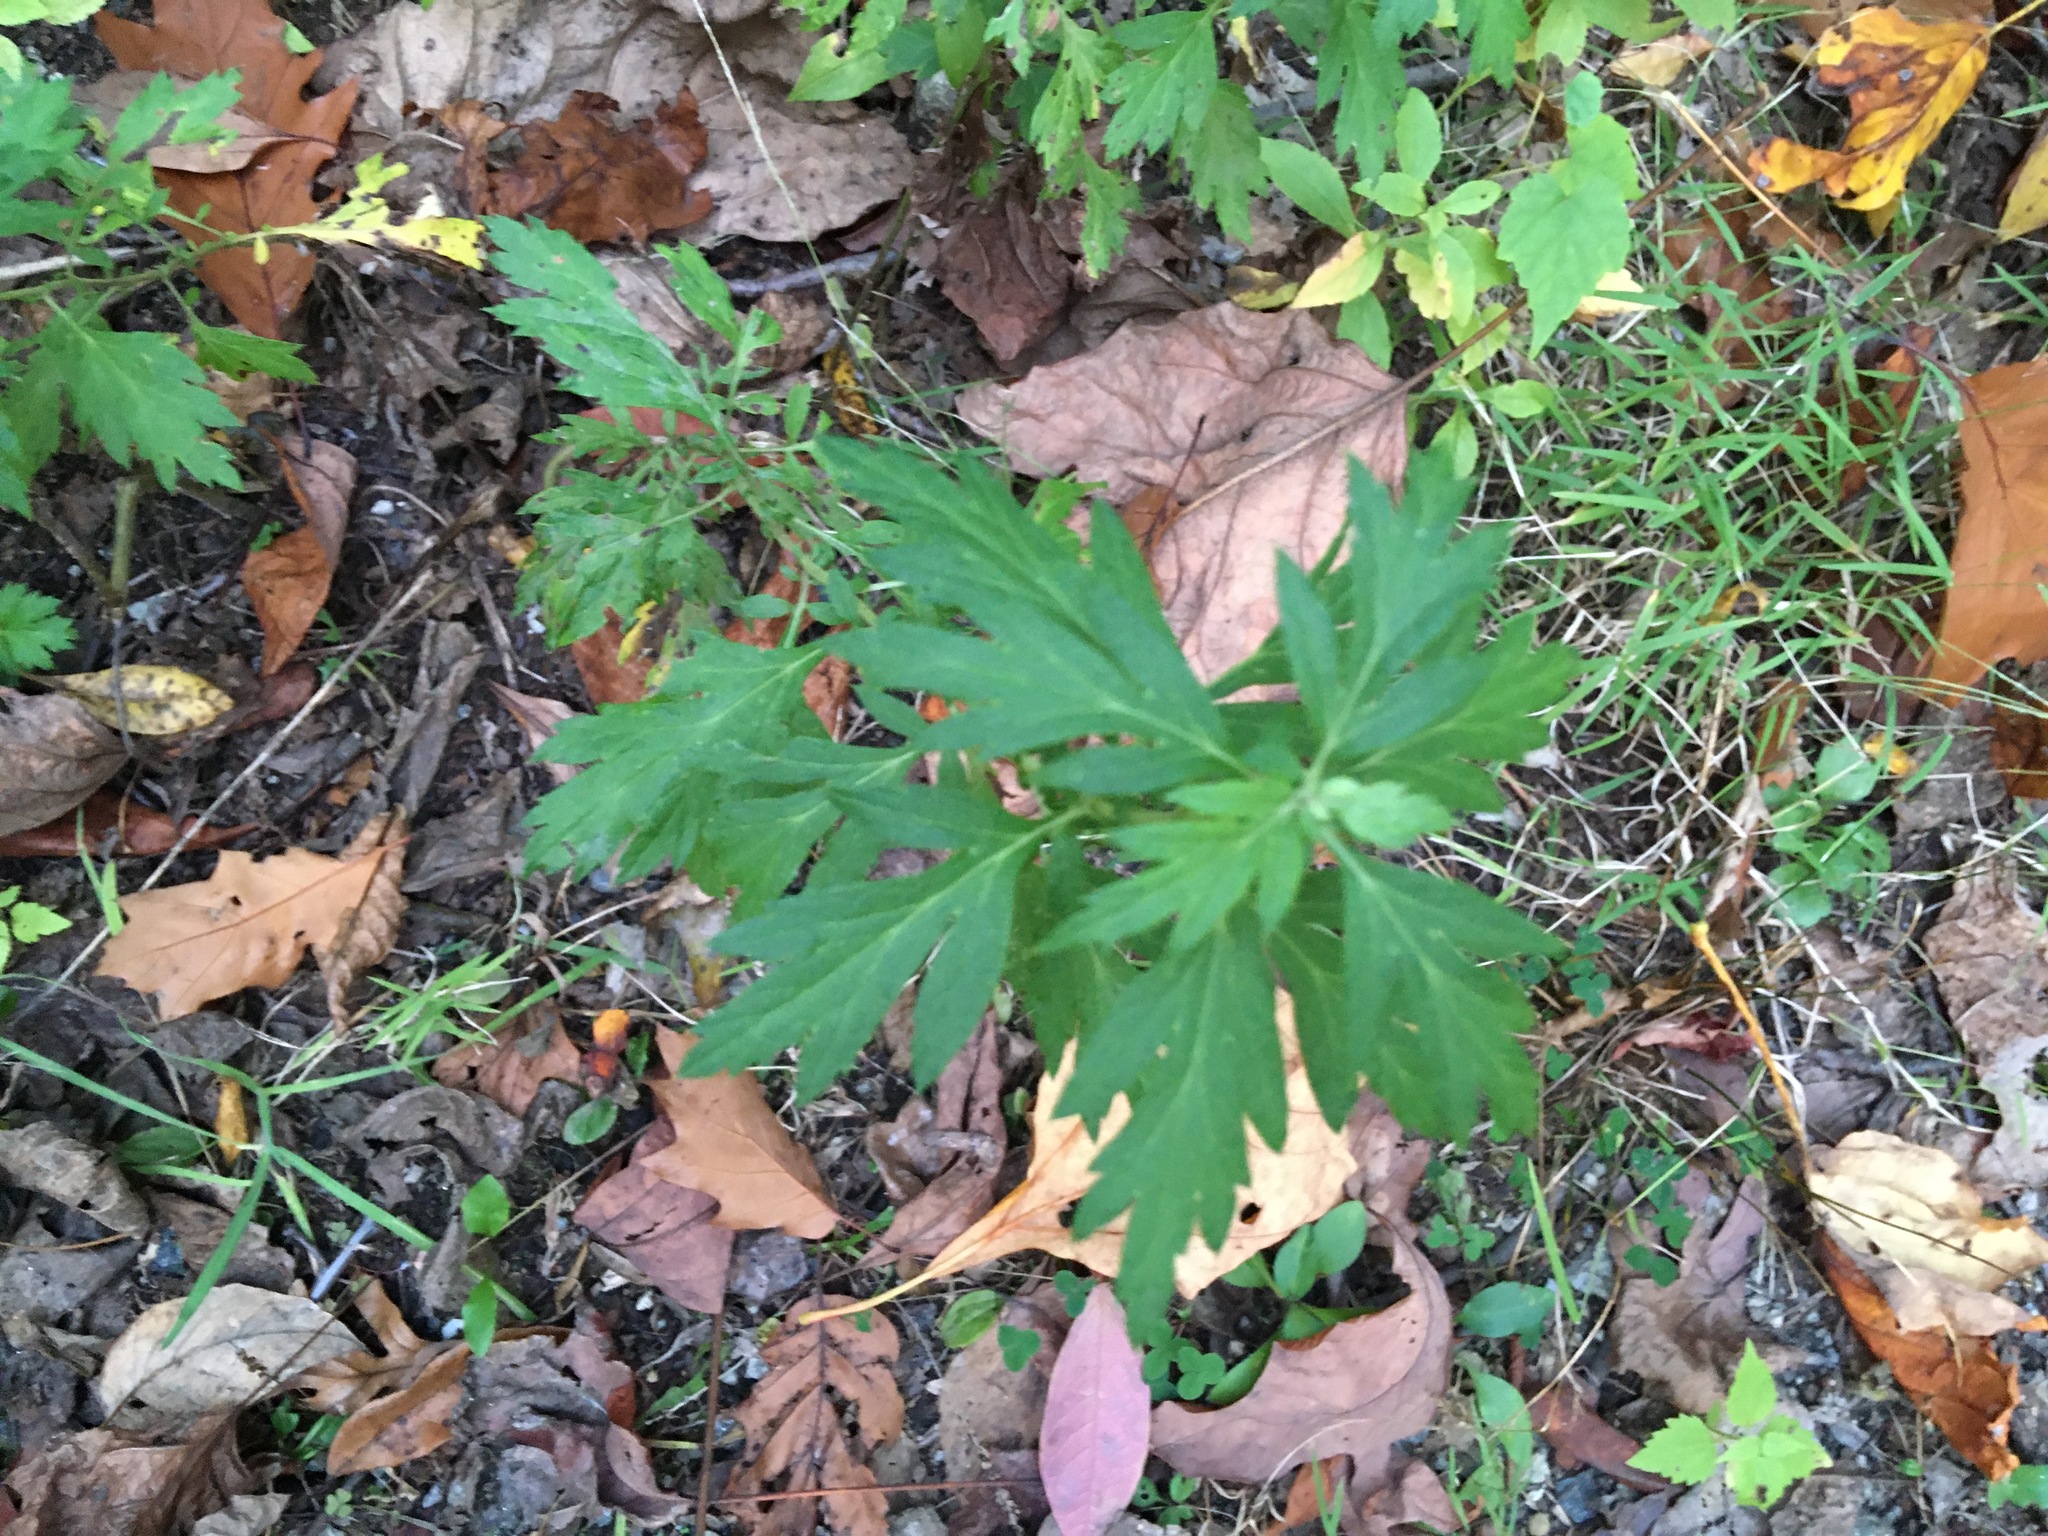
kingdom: Plantae
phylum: Tracheophyta
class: Magnoliopsida
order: Asterales
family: Asteraceae
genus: Artemisia
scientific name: Artemisia vulgaris
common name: Mugwort
